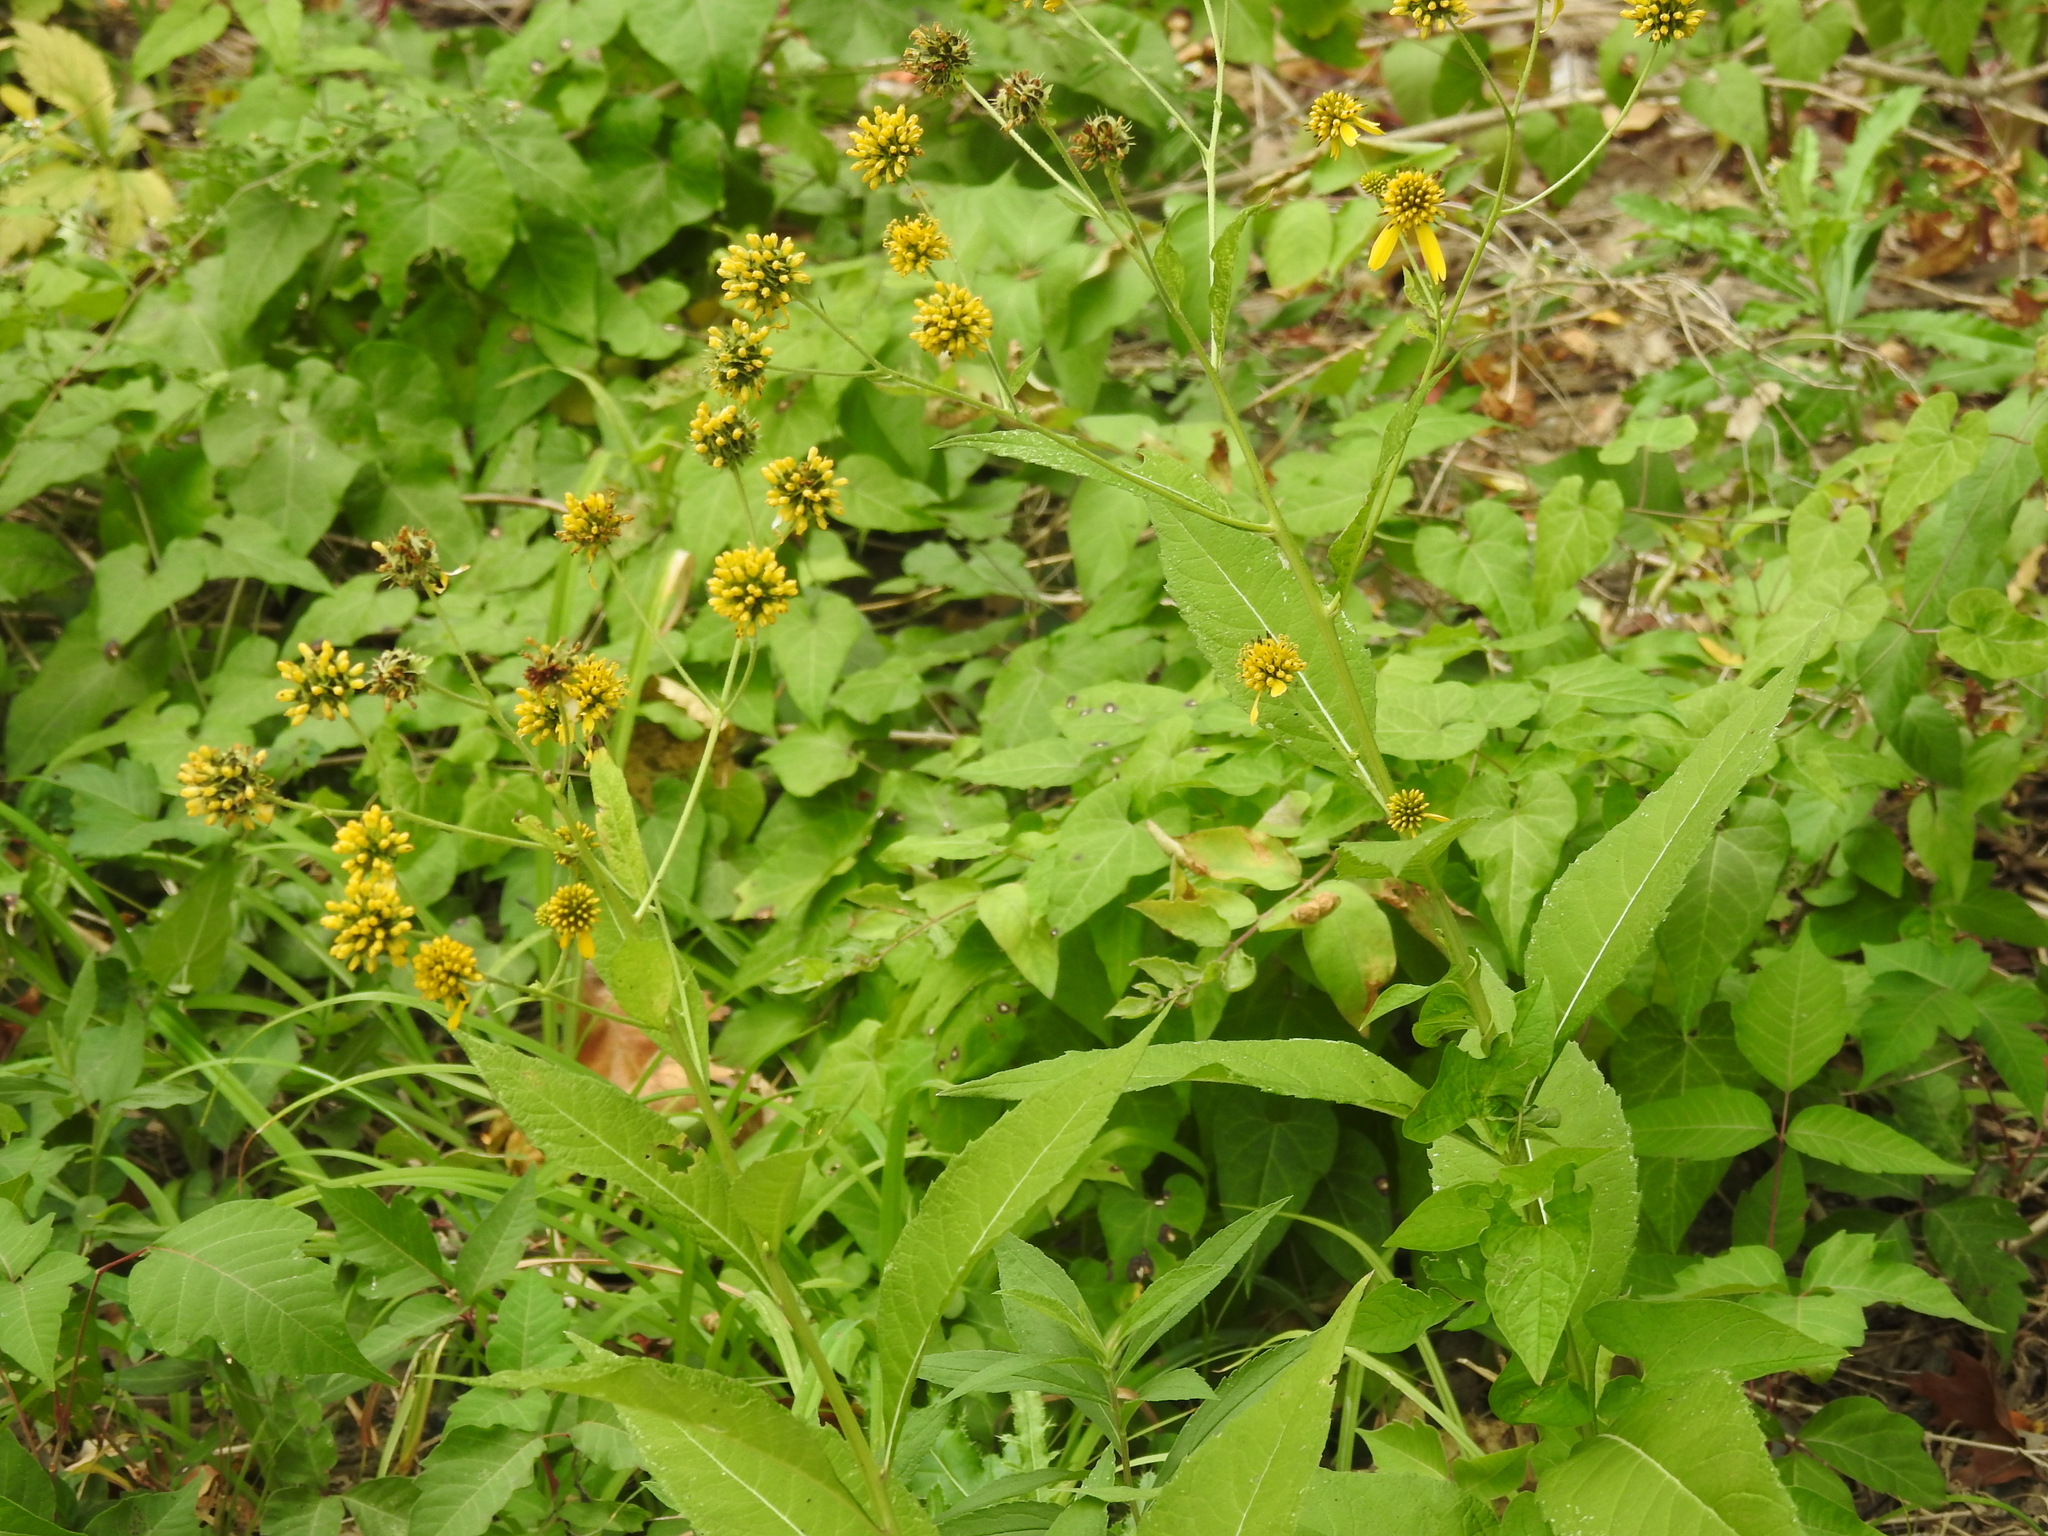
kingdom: Plantae
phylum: Tracheophyta
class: Magnoliopsida
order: Asterales
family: Asteraceae
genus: Verbesina
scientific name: Verbesina alternifolia
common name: Wingstem
